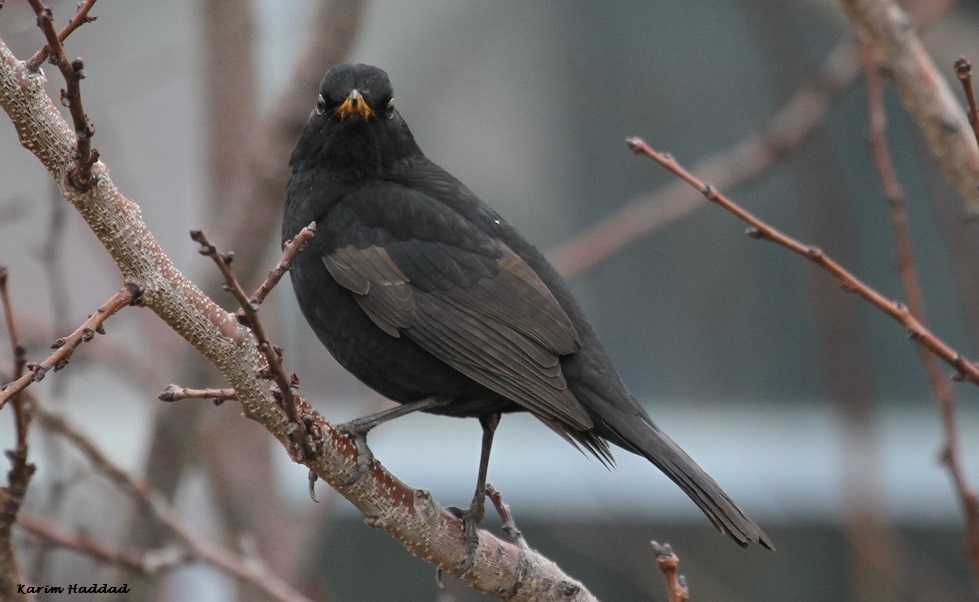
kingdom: Animalia
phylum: Chordata
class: Aves
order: Passeriformes
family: Turdidae
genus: Turdus
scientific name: Turdus merula
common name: Common blackbird
